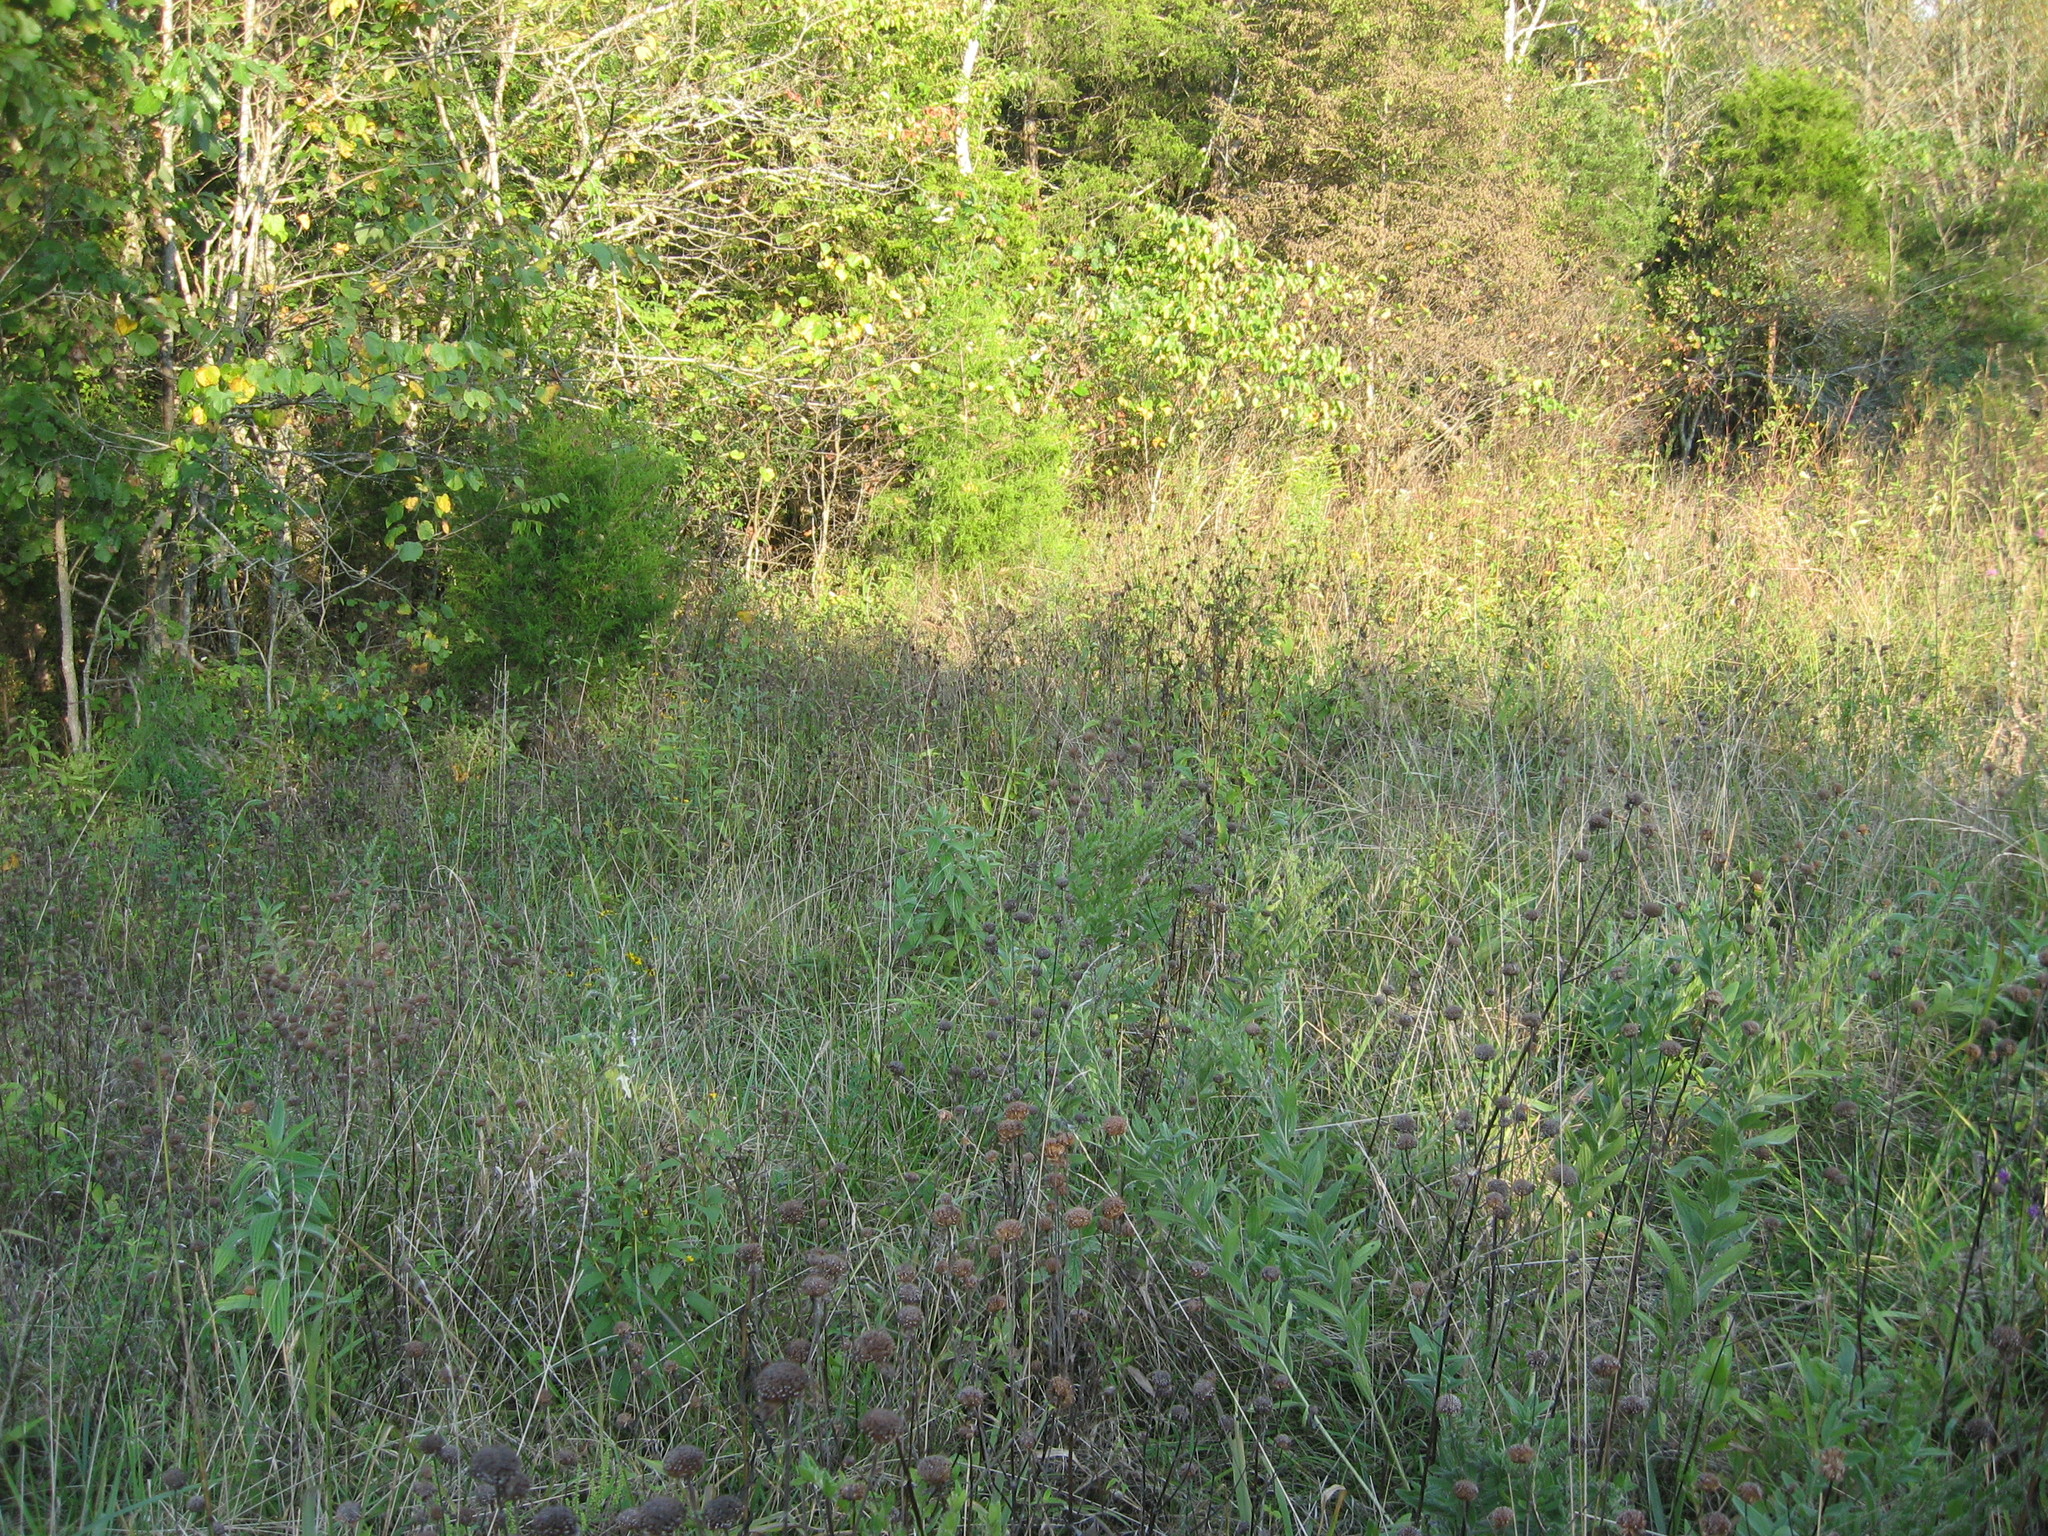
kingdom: Plantae
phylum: Tracheophyta
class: Magnoliopsida
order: Boraginales
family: Boraginaceae
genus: Lithospermum
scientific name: Lithospermum parviflorum
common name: Hairy false gromwell
